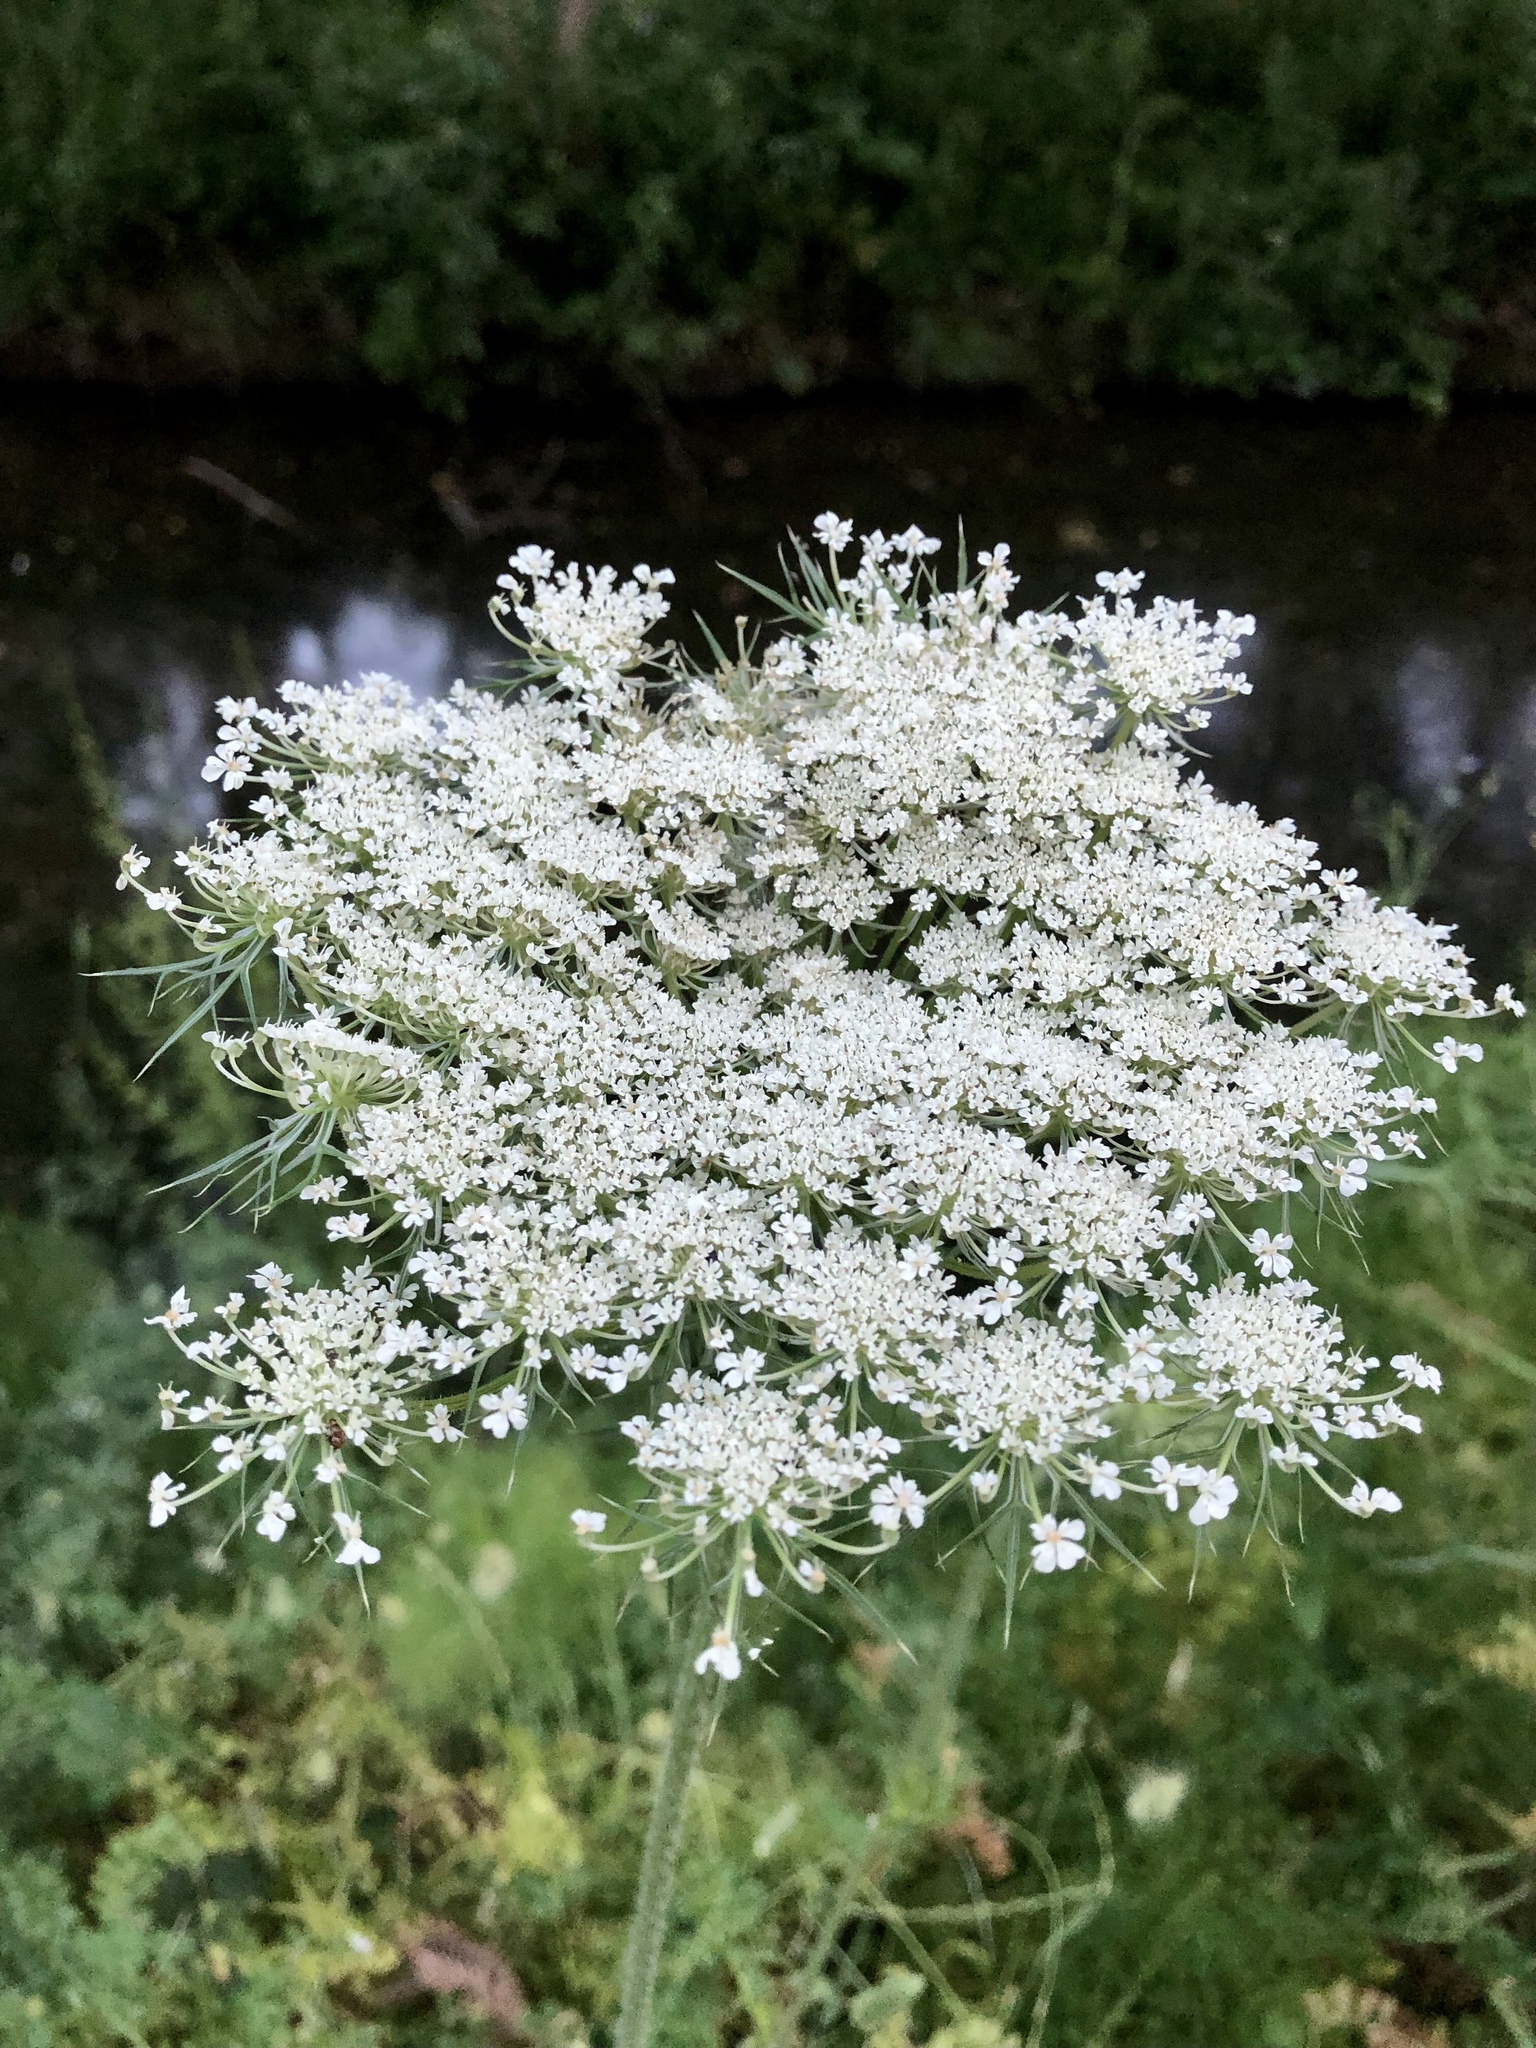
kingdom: Plantae
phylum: Tracheophyta
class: Magnoliopsida
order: Apiales
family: Apiaceae
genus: Daucus
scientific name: Daucus carota
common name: Wild carrot
